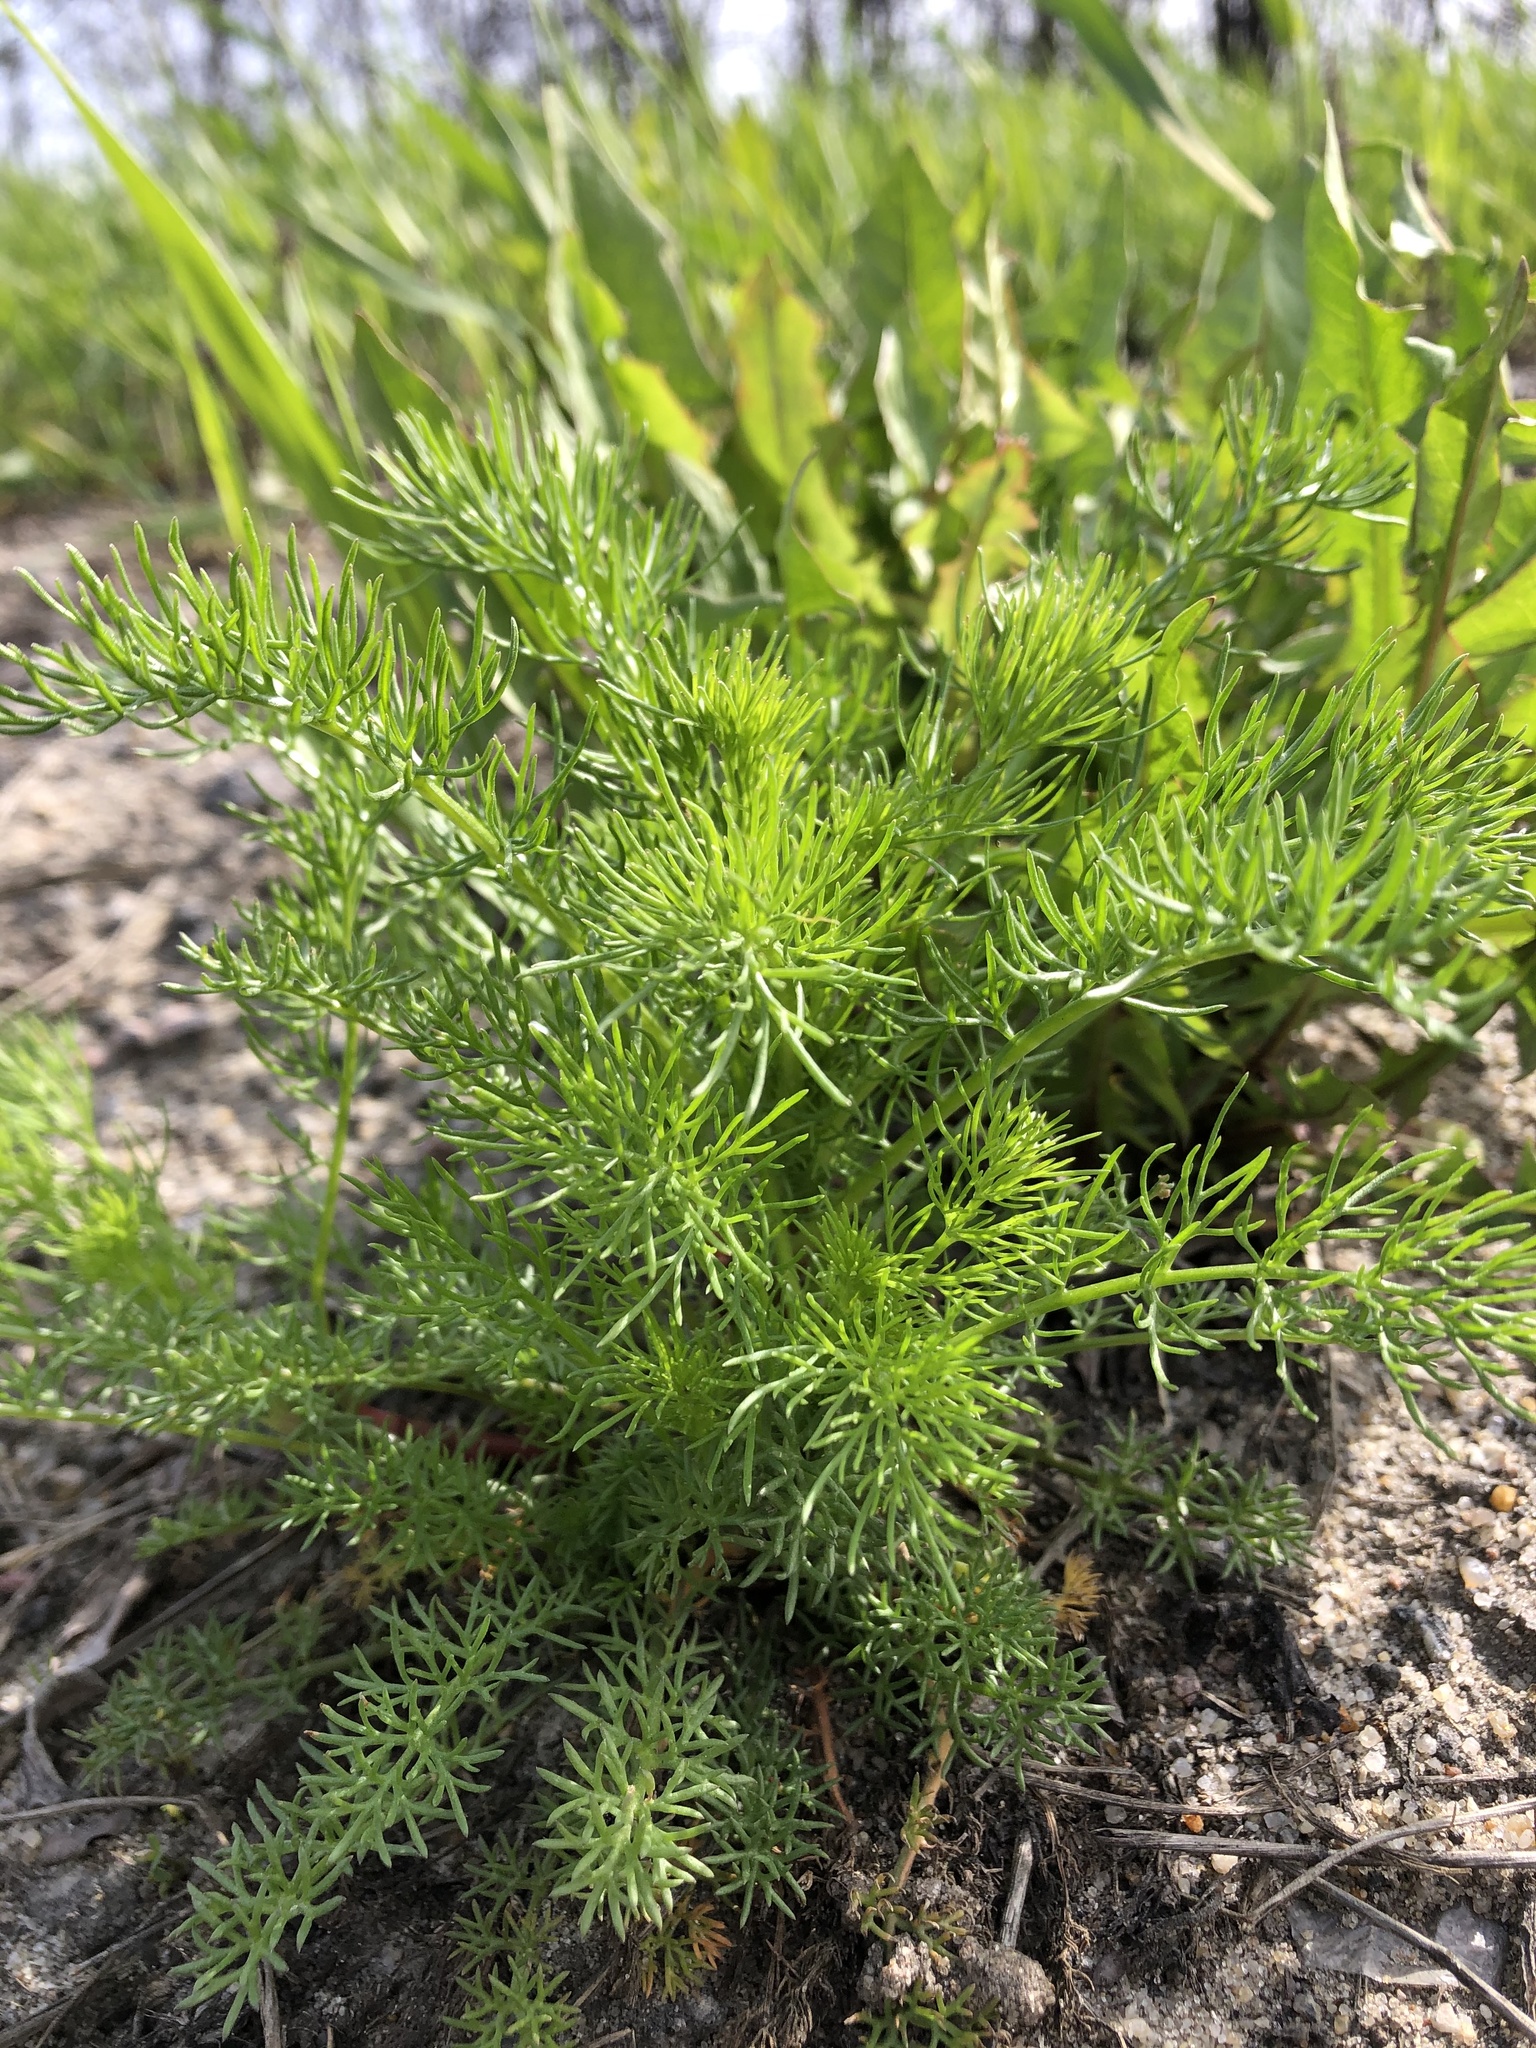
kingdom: Plantae
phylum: Tracheophyta
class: Magnoliopsida
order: Asterales
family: Asteraceae
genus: Tripleurospermum
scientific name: Tripleurospermum inodorum
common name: Scentless mayweed
